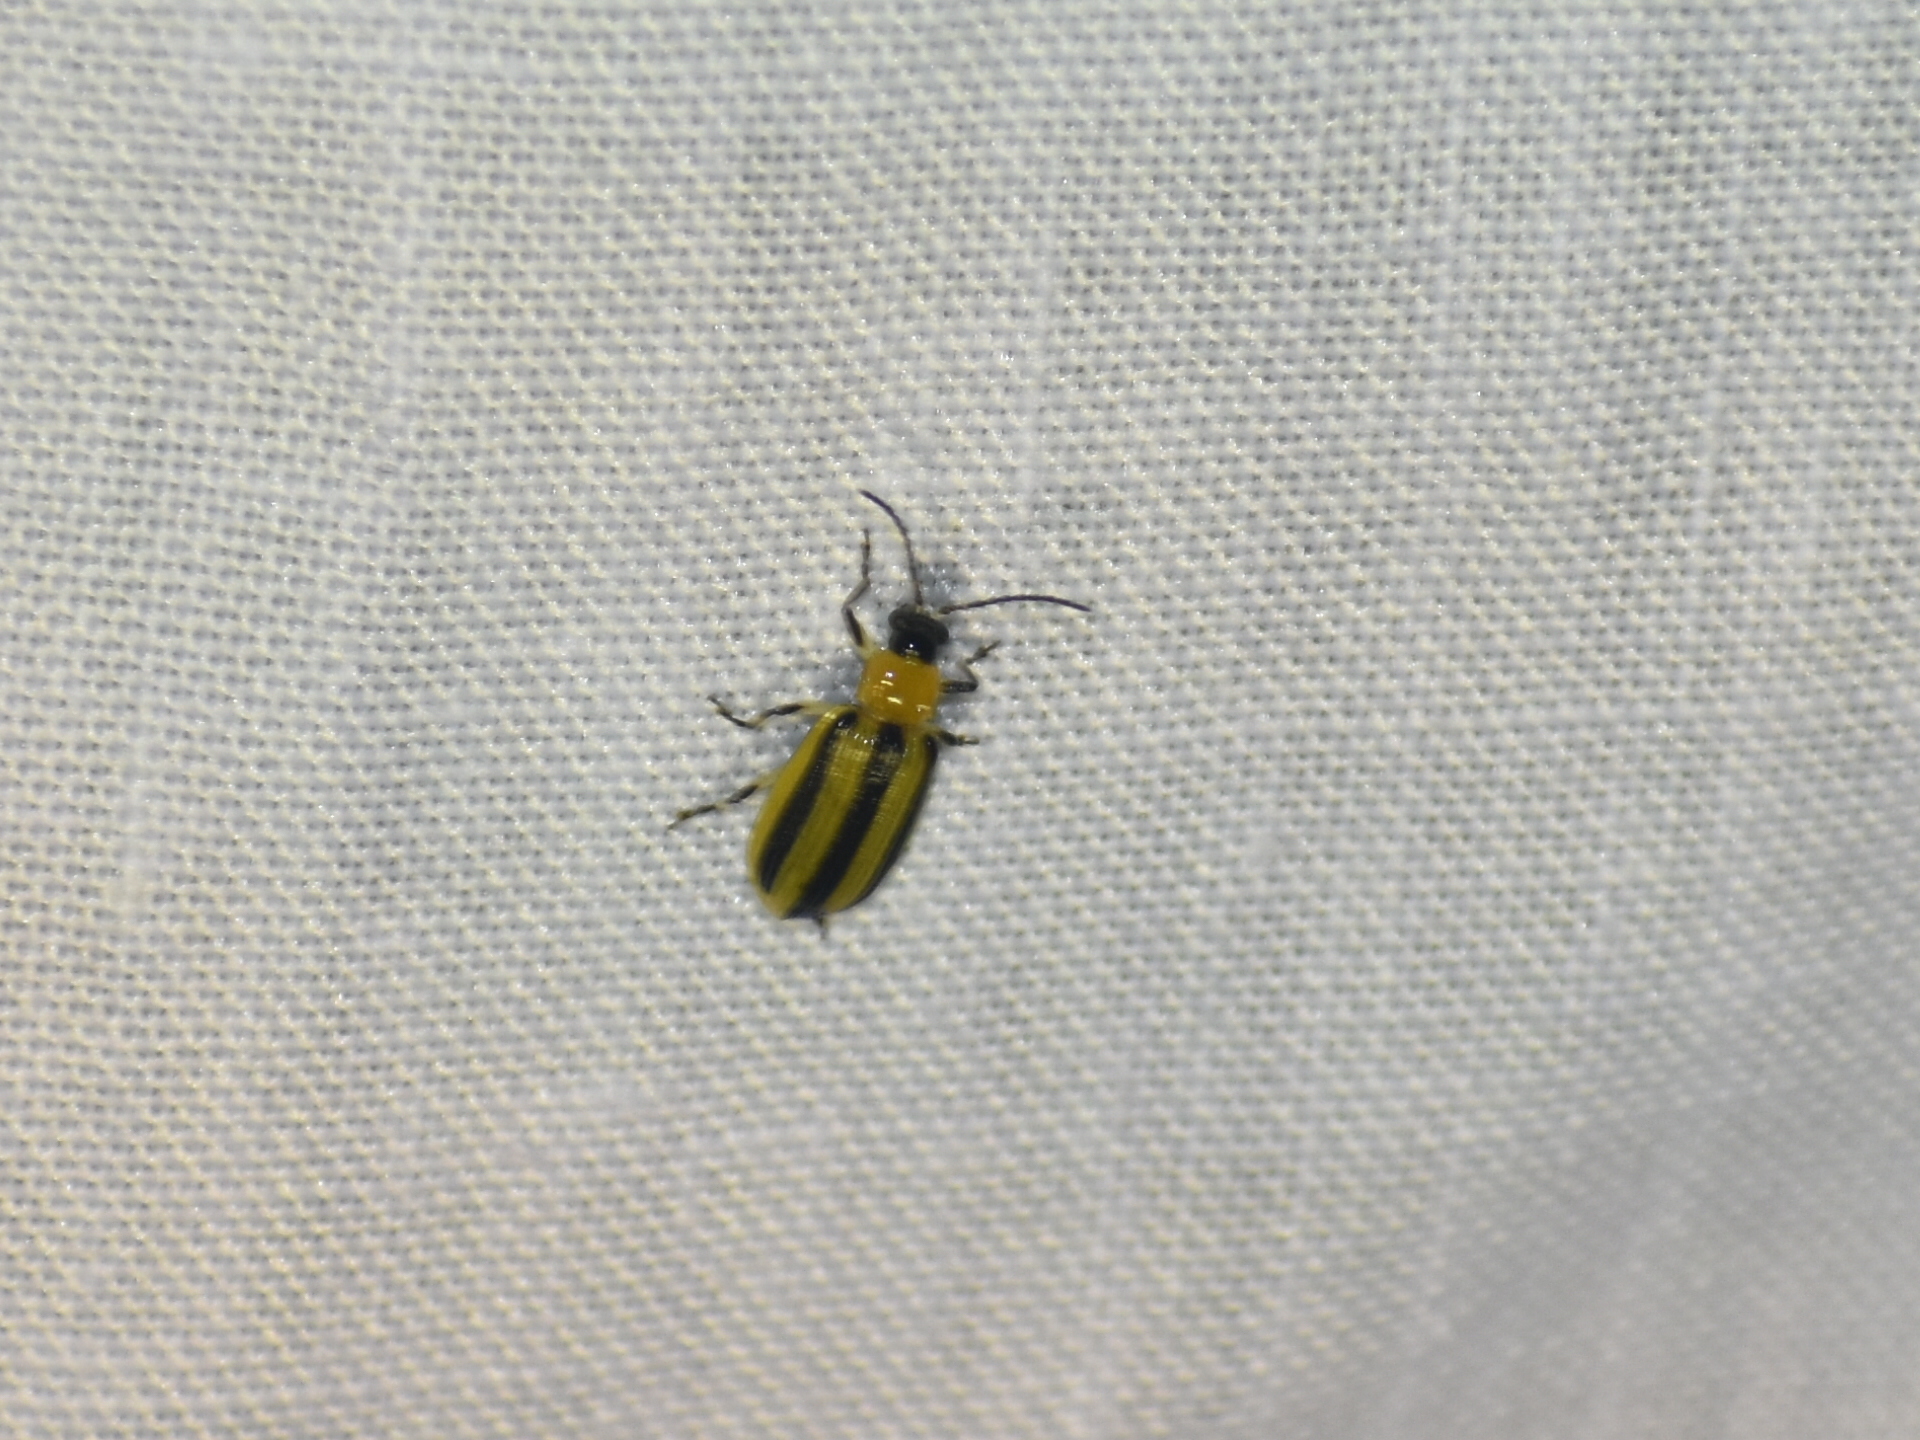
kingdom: Animalia
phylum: Arthropoda
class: Insecta
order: Coleoptera
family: Chrysomelidae
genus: Acalymma
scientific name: Acalymma vittatum
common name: Striped cucumber beetle
